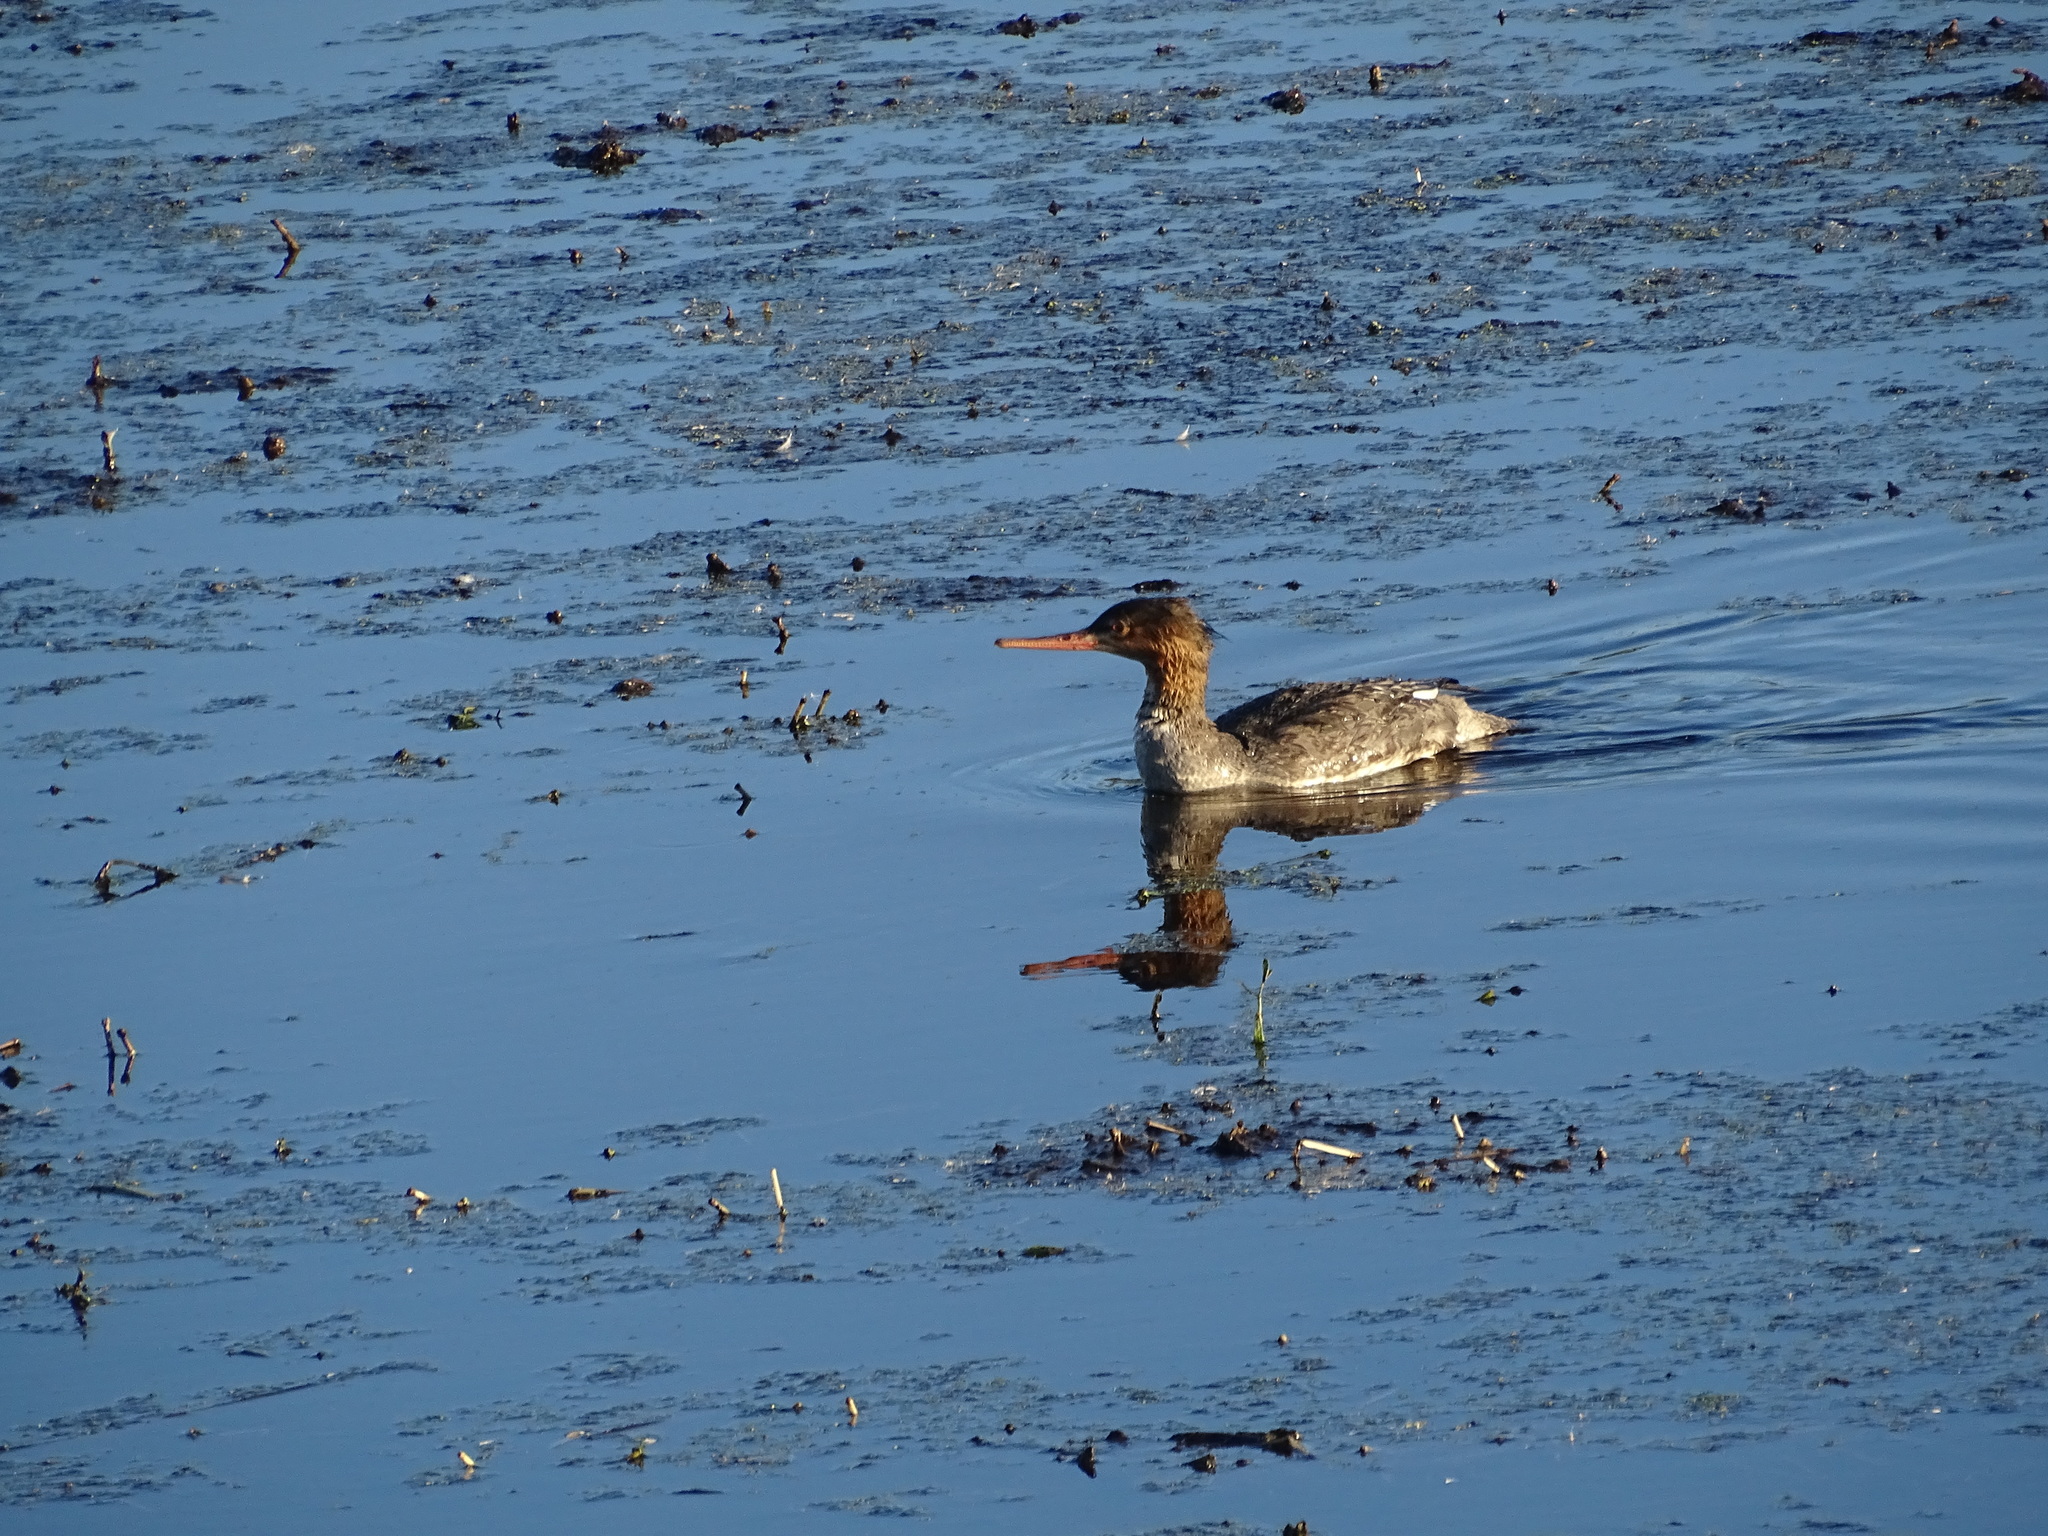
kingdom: Animalia
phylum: Chordata
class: Aves
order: Anseriformes
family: Anatidae
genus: Mergus
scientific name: Mergus serrator
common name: Red-breasted merganser
